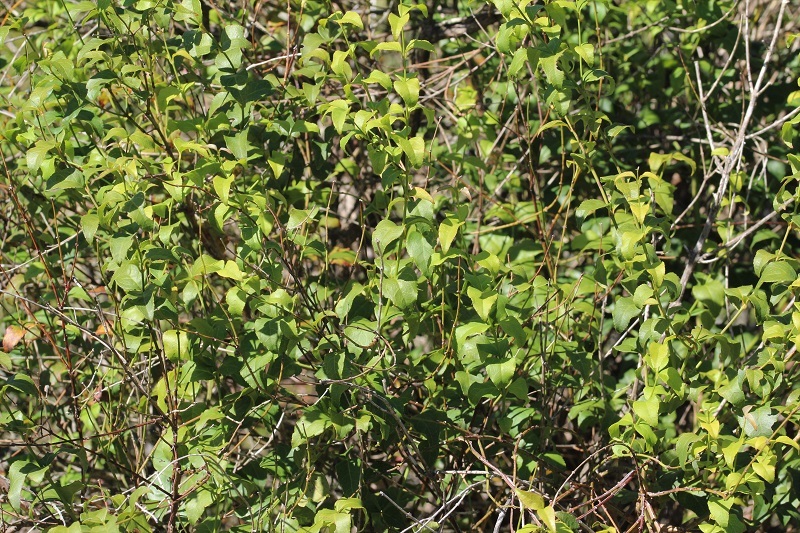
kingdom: Plantae
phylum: Tracheophyta
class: Magnoliopsida
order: Lamiales
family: Stilbaceae
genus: Halleria
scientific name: Halleria lucida
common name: Tree fuschia
